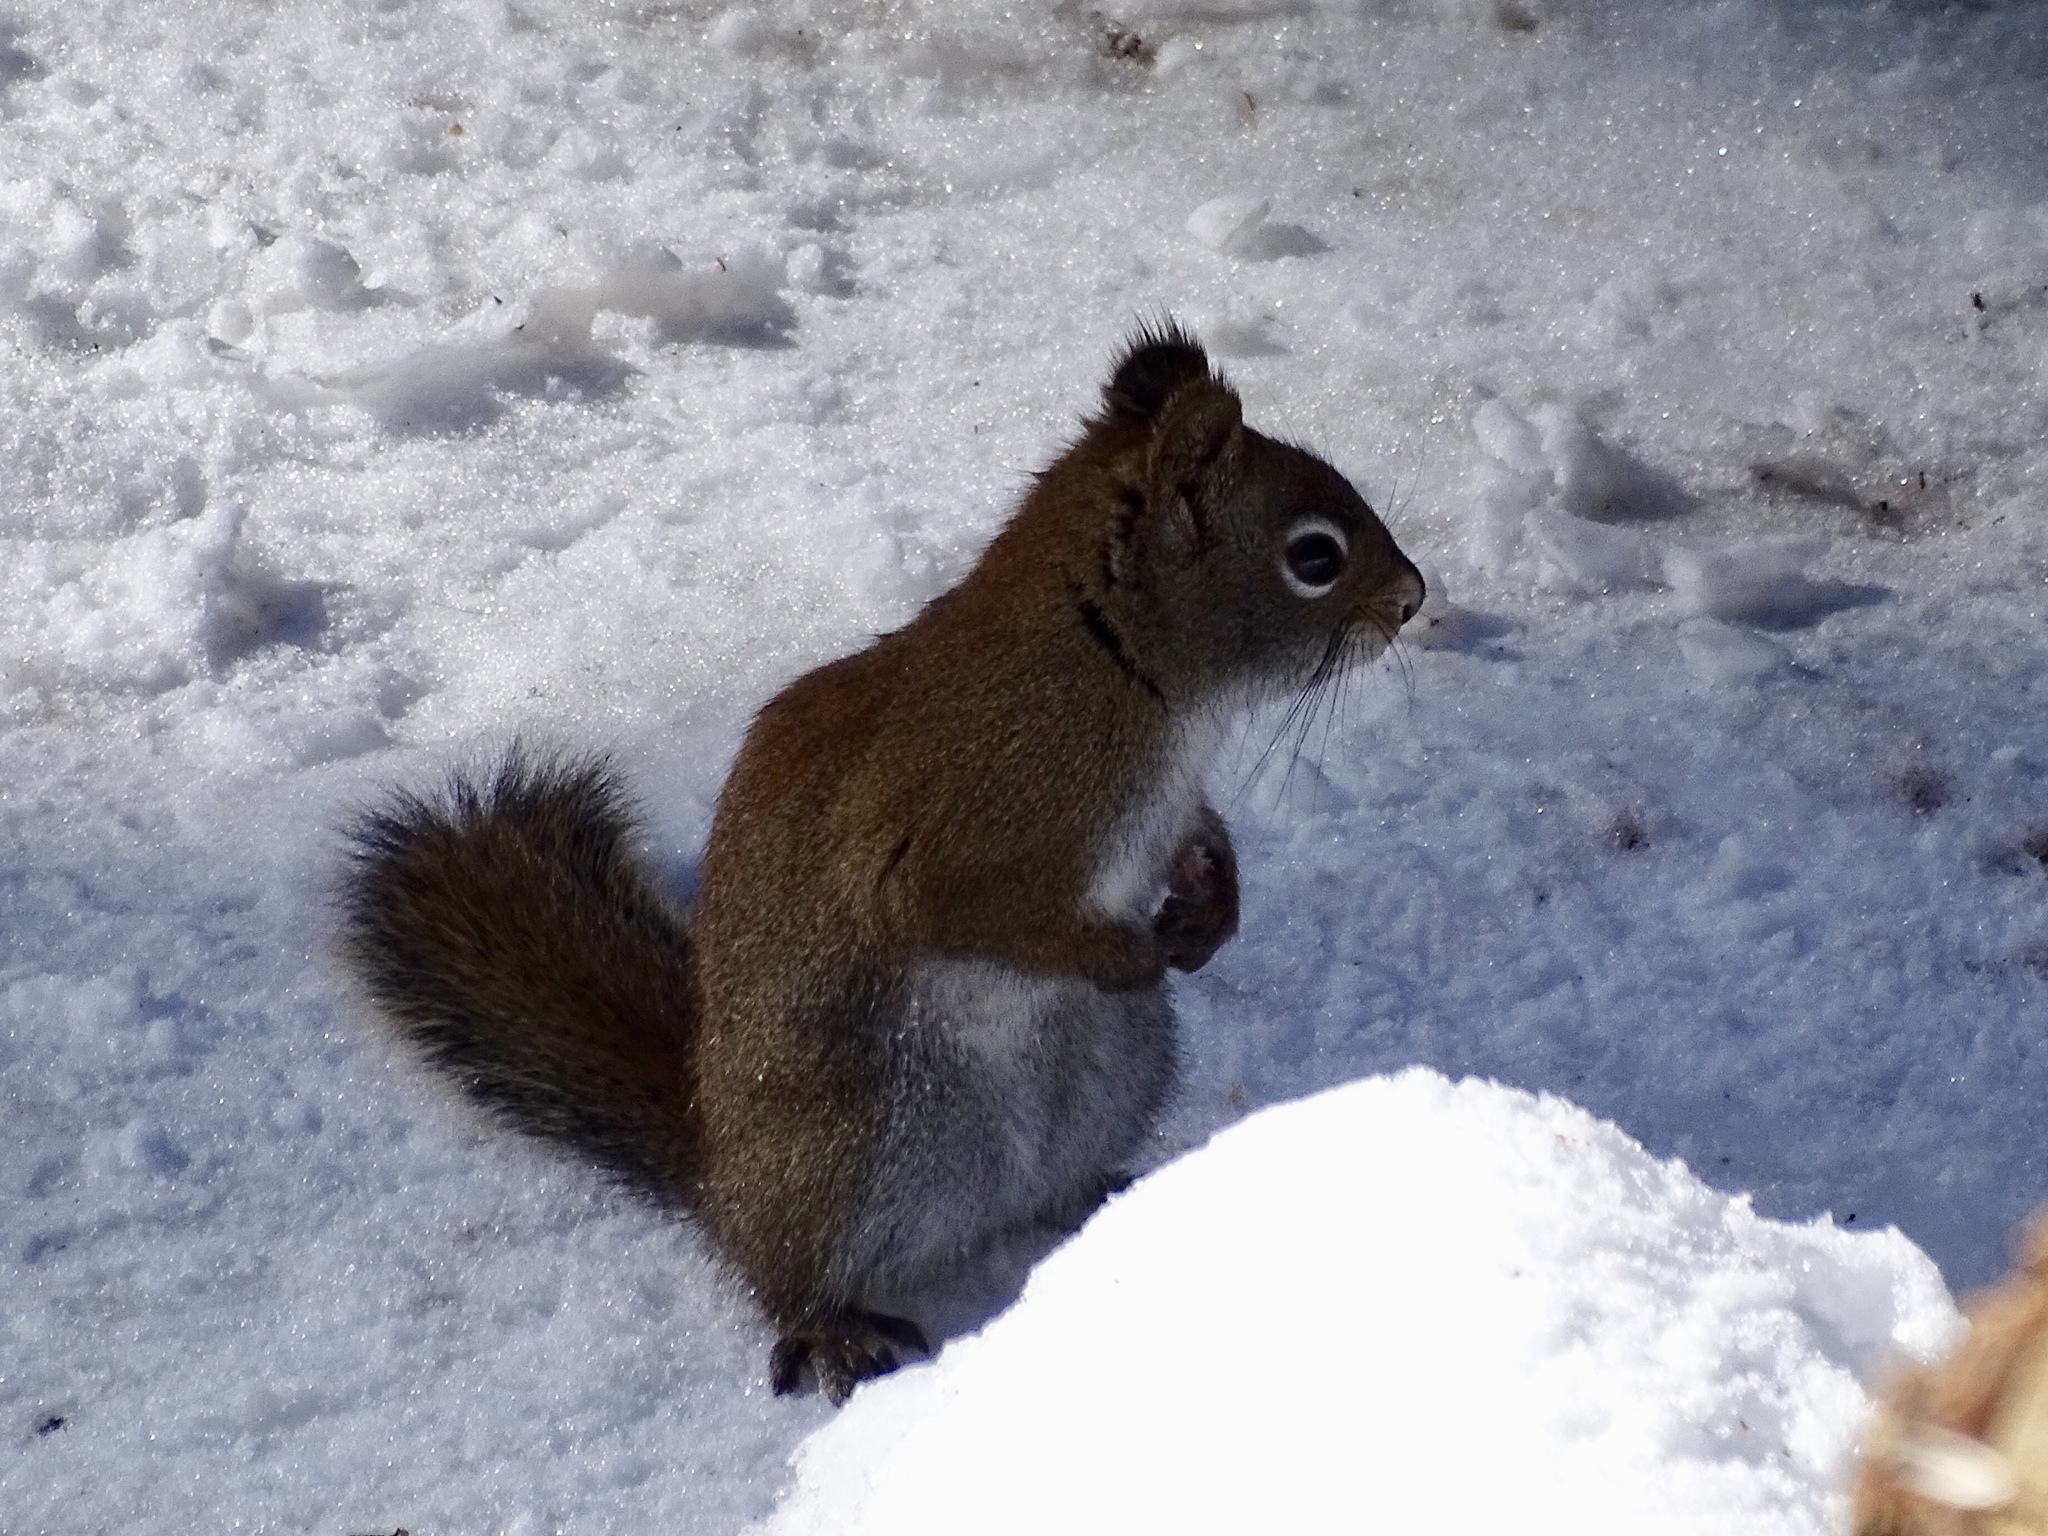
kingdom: Animalia
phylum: Chordata
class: Mammalia
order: Rodentia
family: Sciuridae
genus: Tamiasciurus
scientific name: Tamiasciurus hudsonicus
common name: Red squirrel
